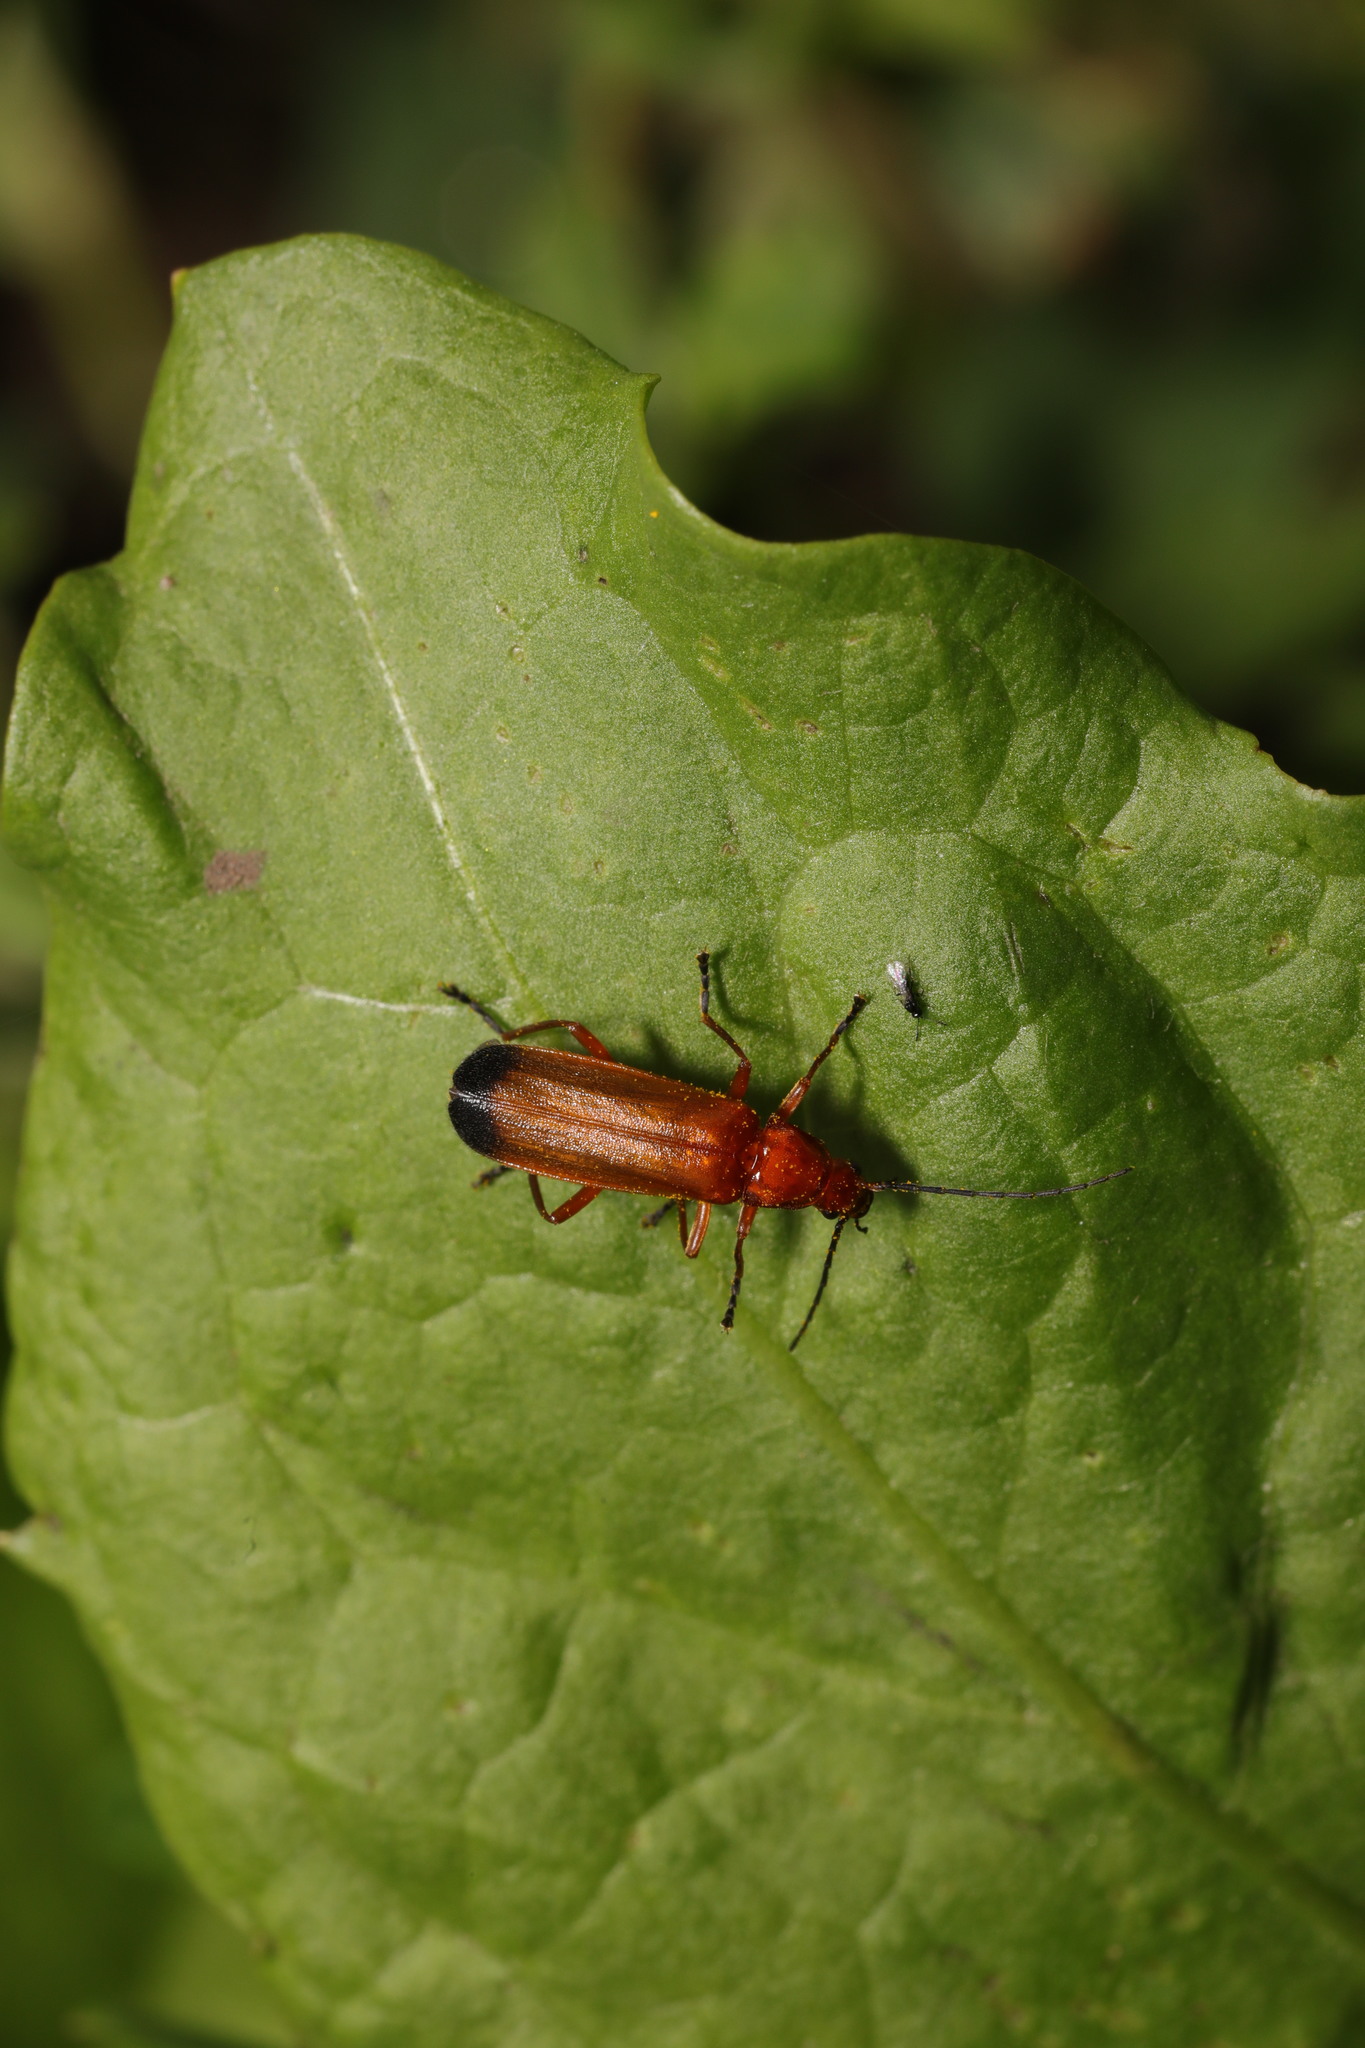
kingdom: Animalia
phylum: Arthropoda
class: Insecta
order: Coleoptera
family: Cantharidae
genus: Rhagonycha
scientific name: Rhagonycha fulva
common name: Common red soldier beetle
